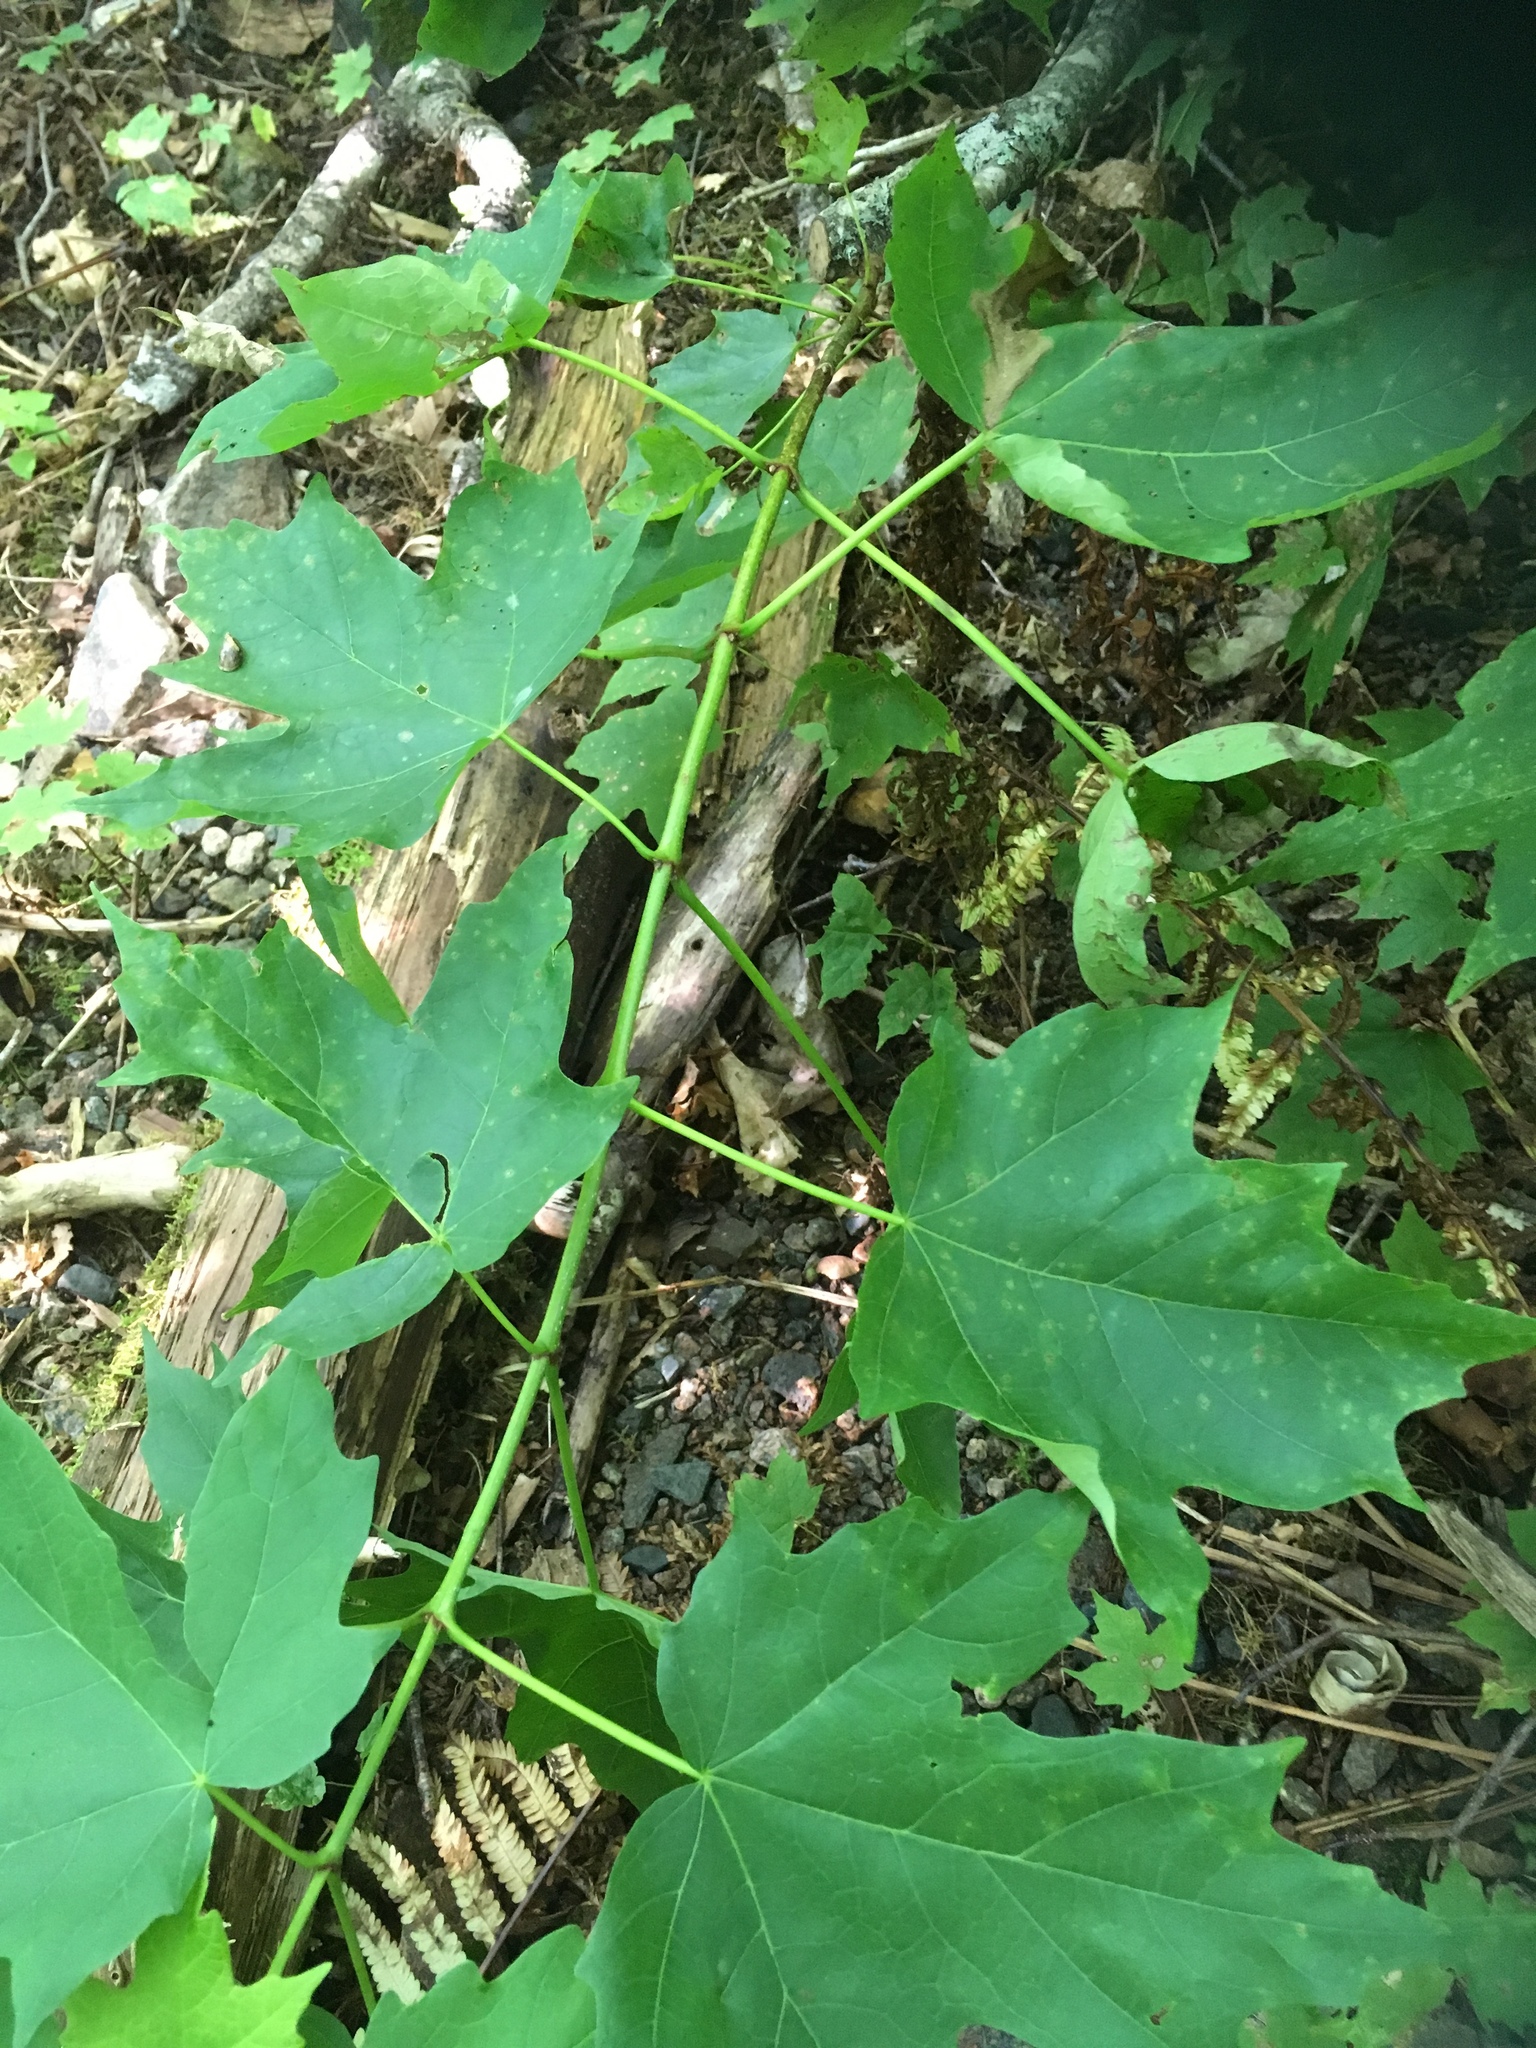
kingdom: Plantae
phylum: Tracheophyta
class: Magnoliopsida
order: Sapindales
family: Sapindaceae
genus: Acer
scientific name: Acer saccharum
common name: Sugar maple
